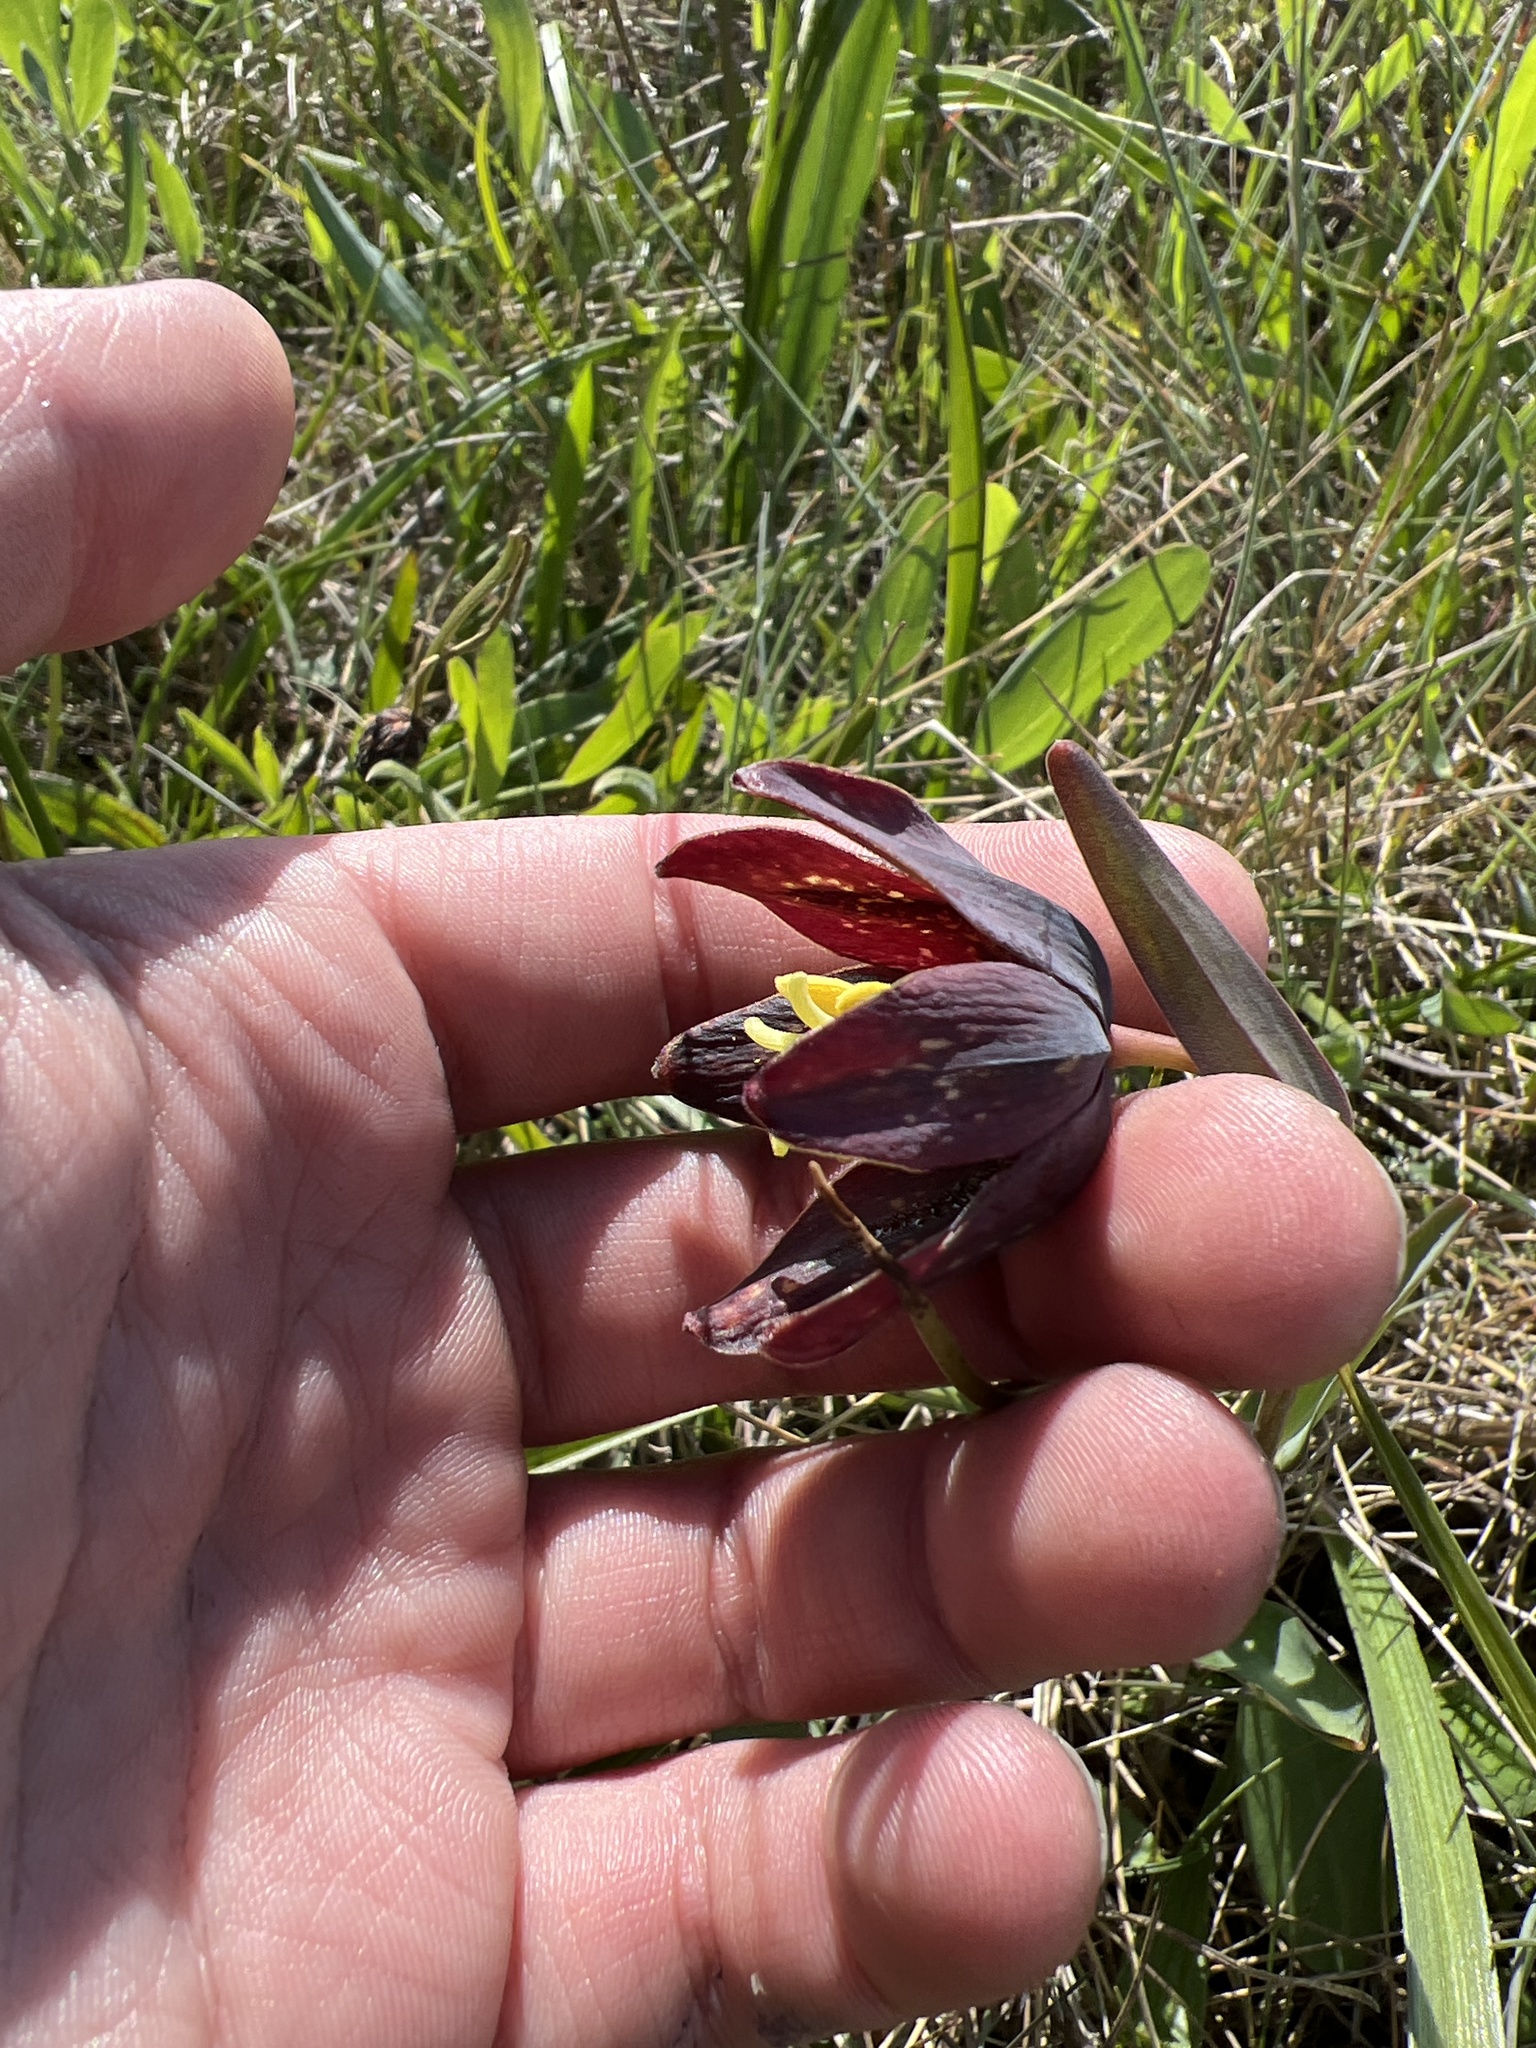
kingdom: Plantae
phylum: Tracheophyta
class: Liliopsida
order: Liliales
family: Liliaceae
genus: Fritillaria
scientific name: Fritillaria affinis
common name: Ojai fritillary
